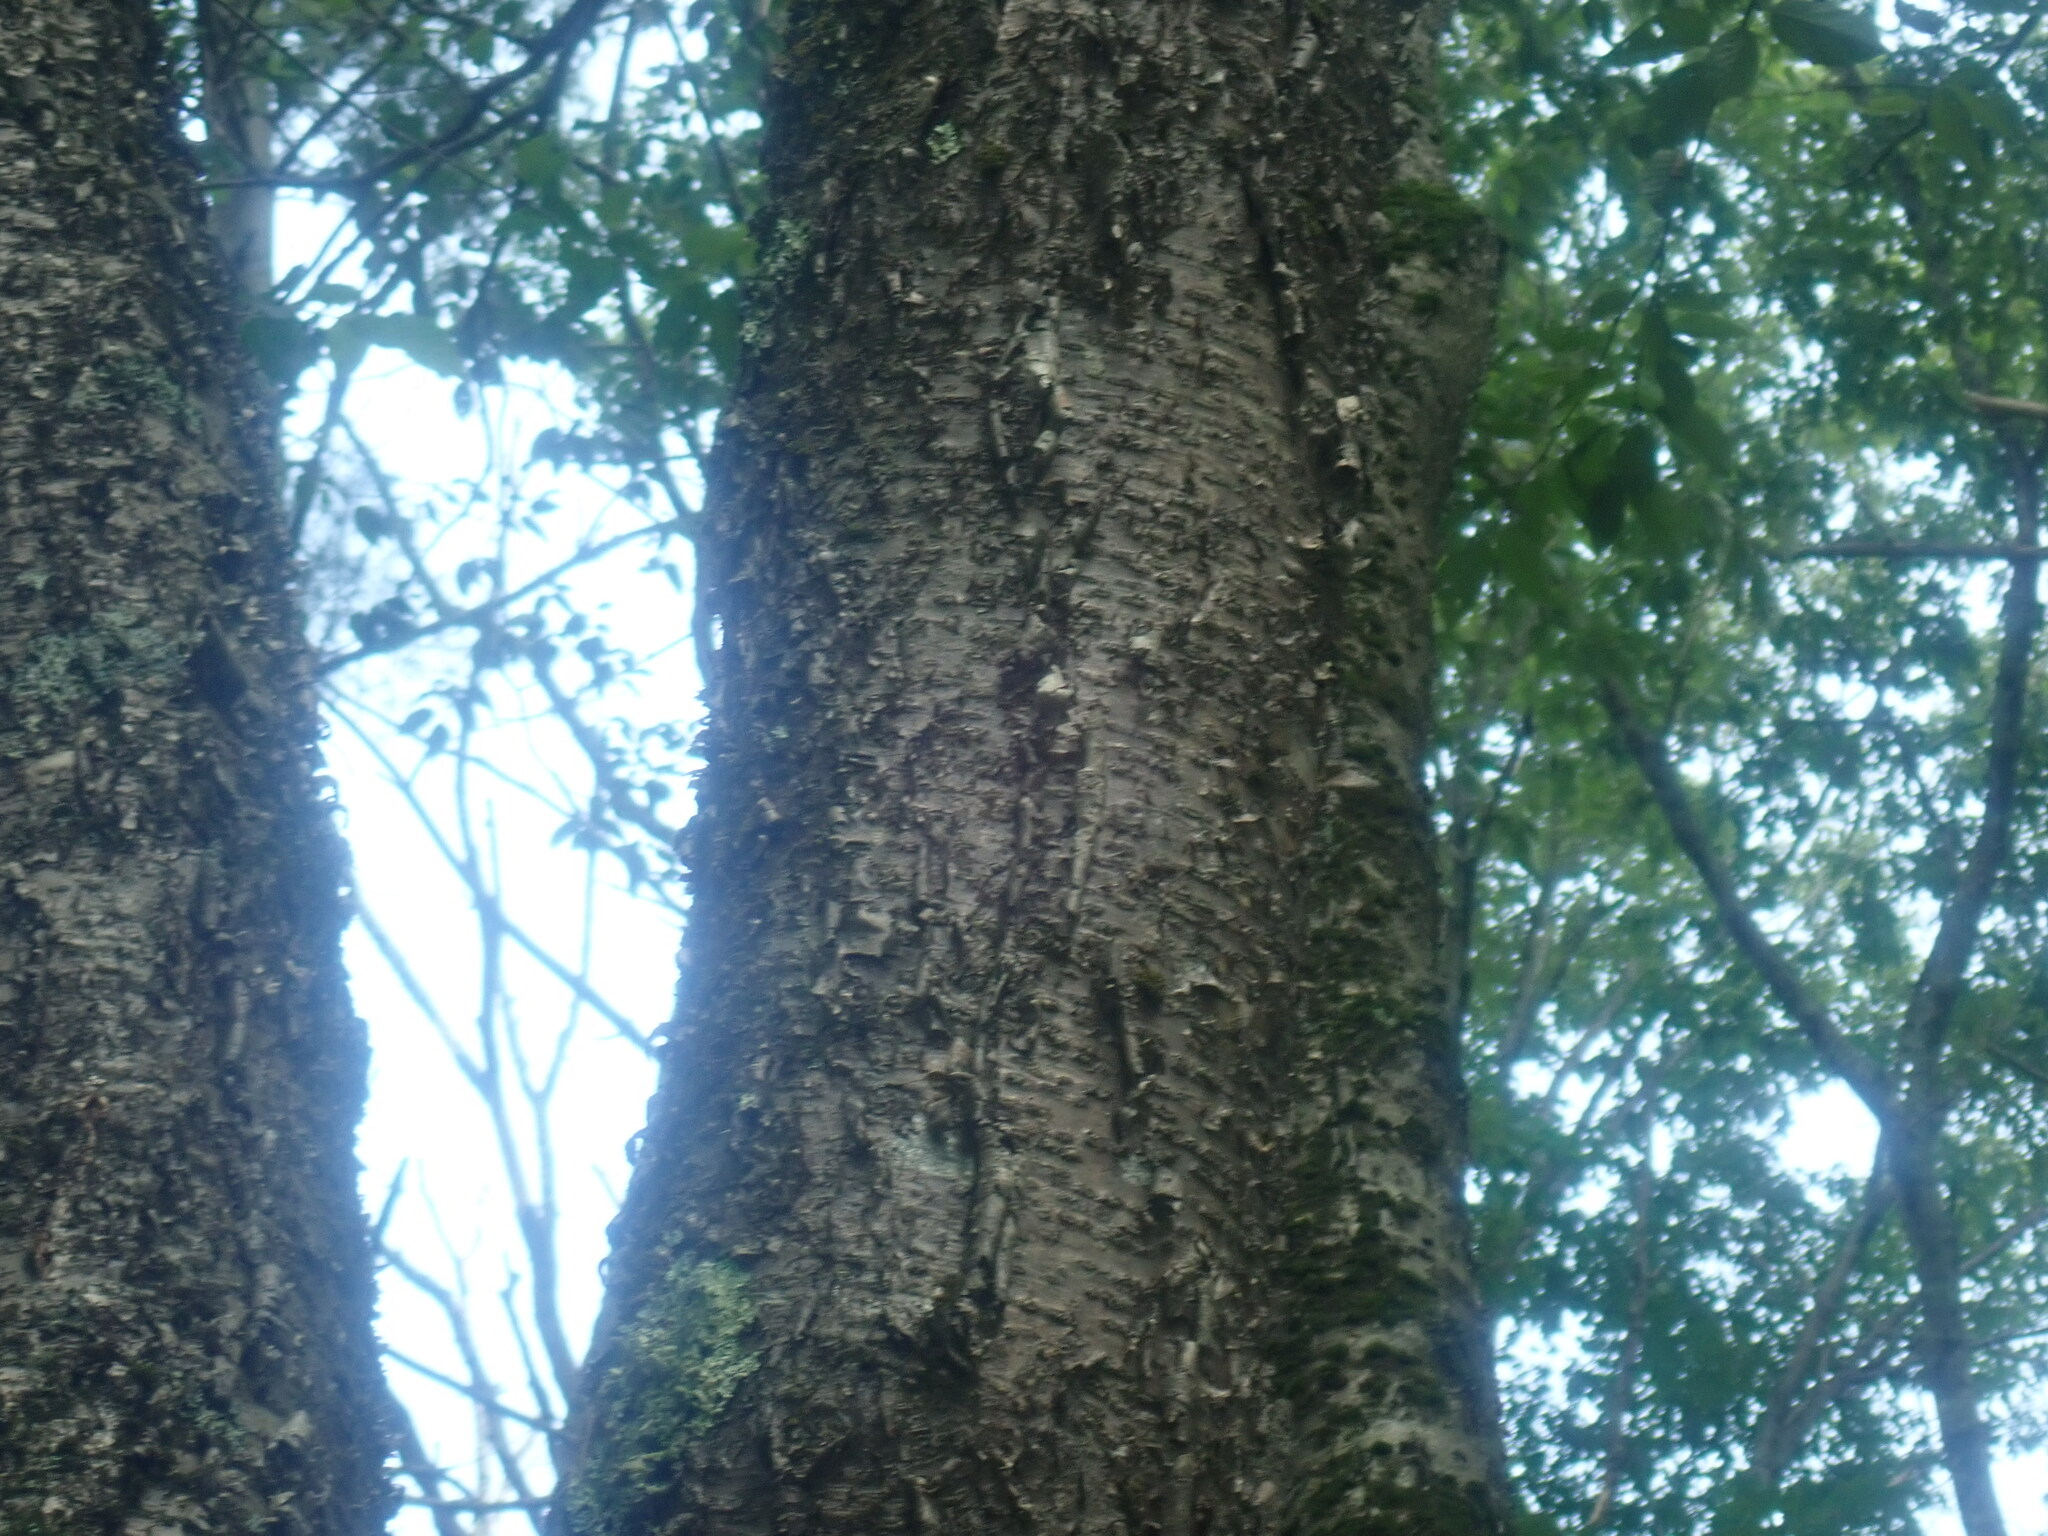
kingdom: Plantae
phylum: Tracheophyta
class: Magnoliopsida
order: Fagales
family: Betulaceae
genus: Betula
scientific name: Betula alleghaniensis
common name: Yellow birch
